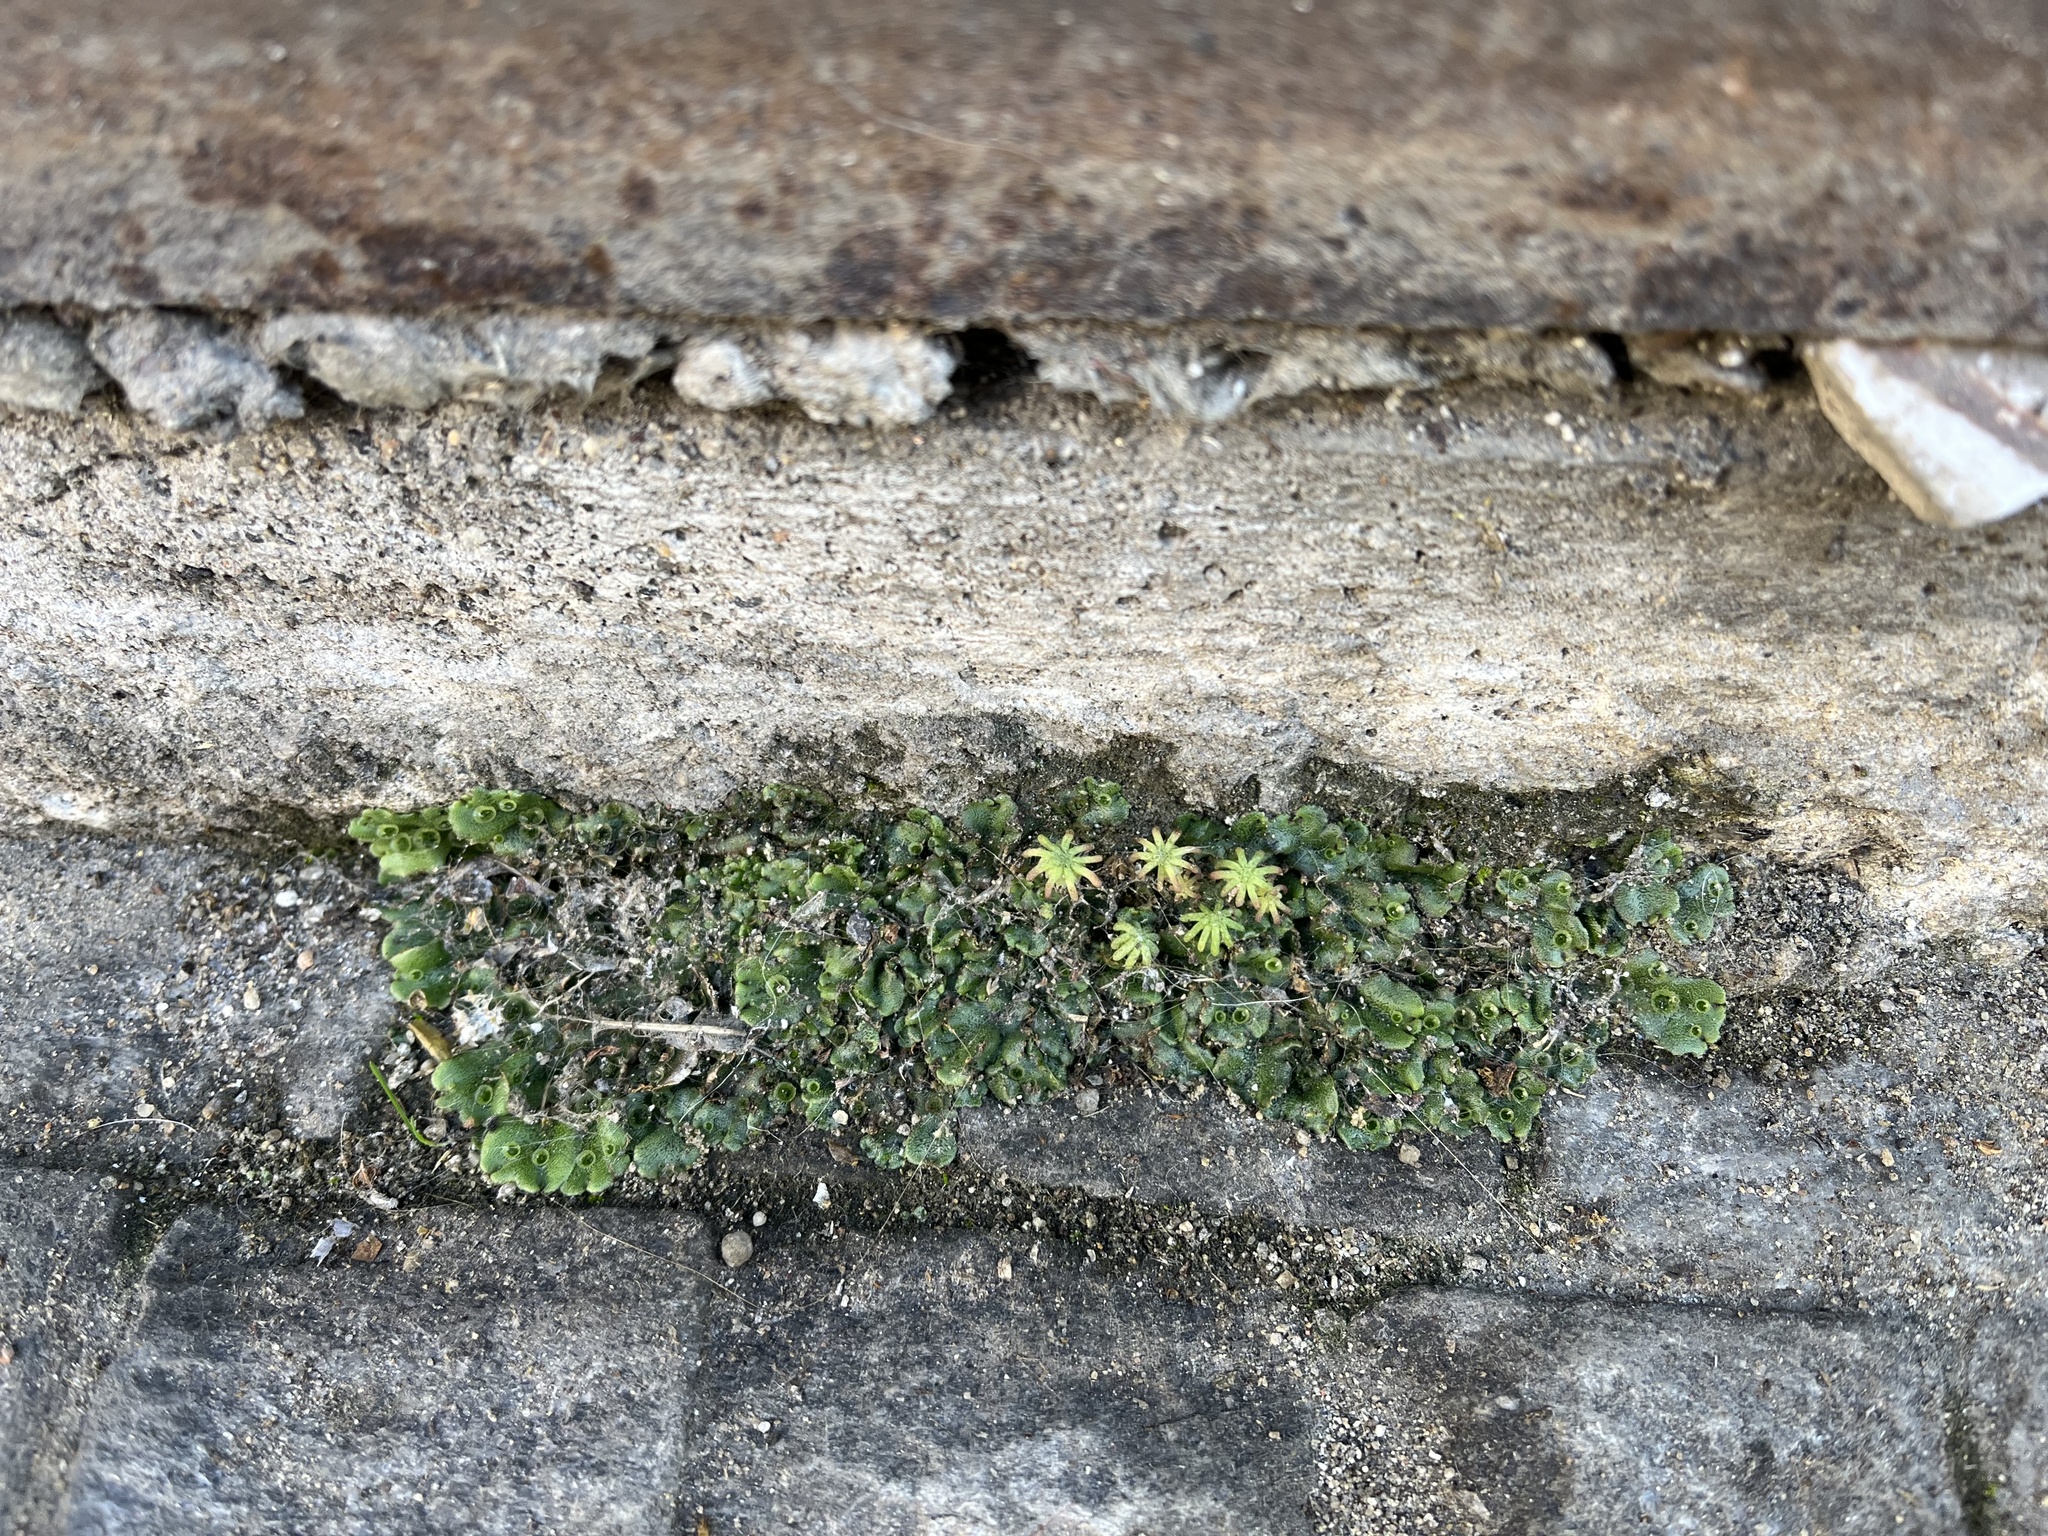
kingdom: Plantae
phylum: Marchantiophyta
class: Marchantiopsida
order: Marchantiales
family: Marchantiaceae
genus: Marchantia
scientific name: Marchantia polymorpha
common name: Common liverwort
